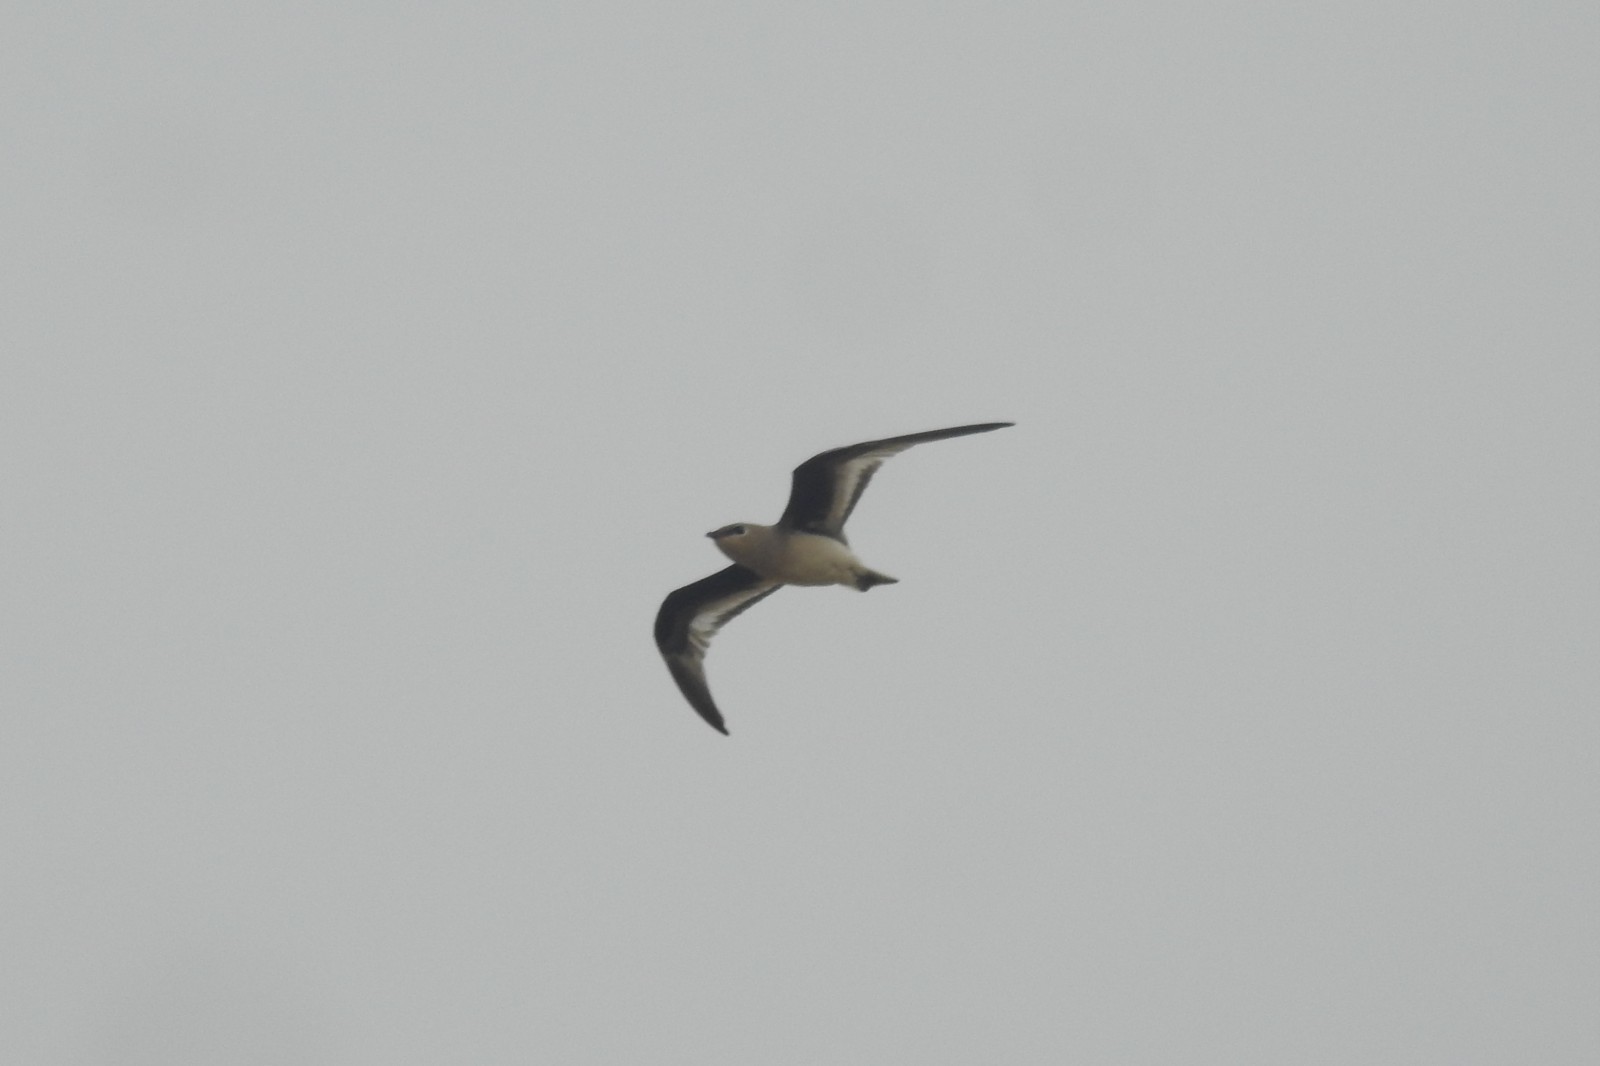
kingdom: Animalia
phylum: Chordata
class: Aves
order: Charadriiformes
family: Glareolidae
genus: Glareola
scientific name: Glareola lactea
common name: Small pratincole
